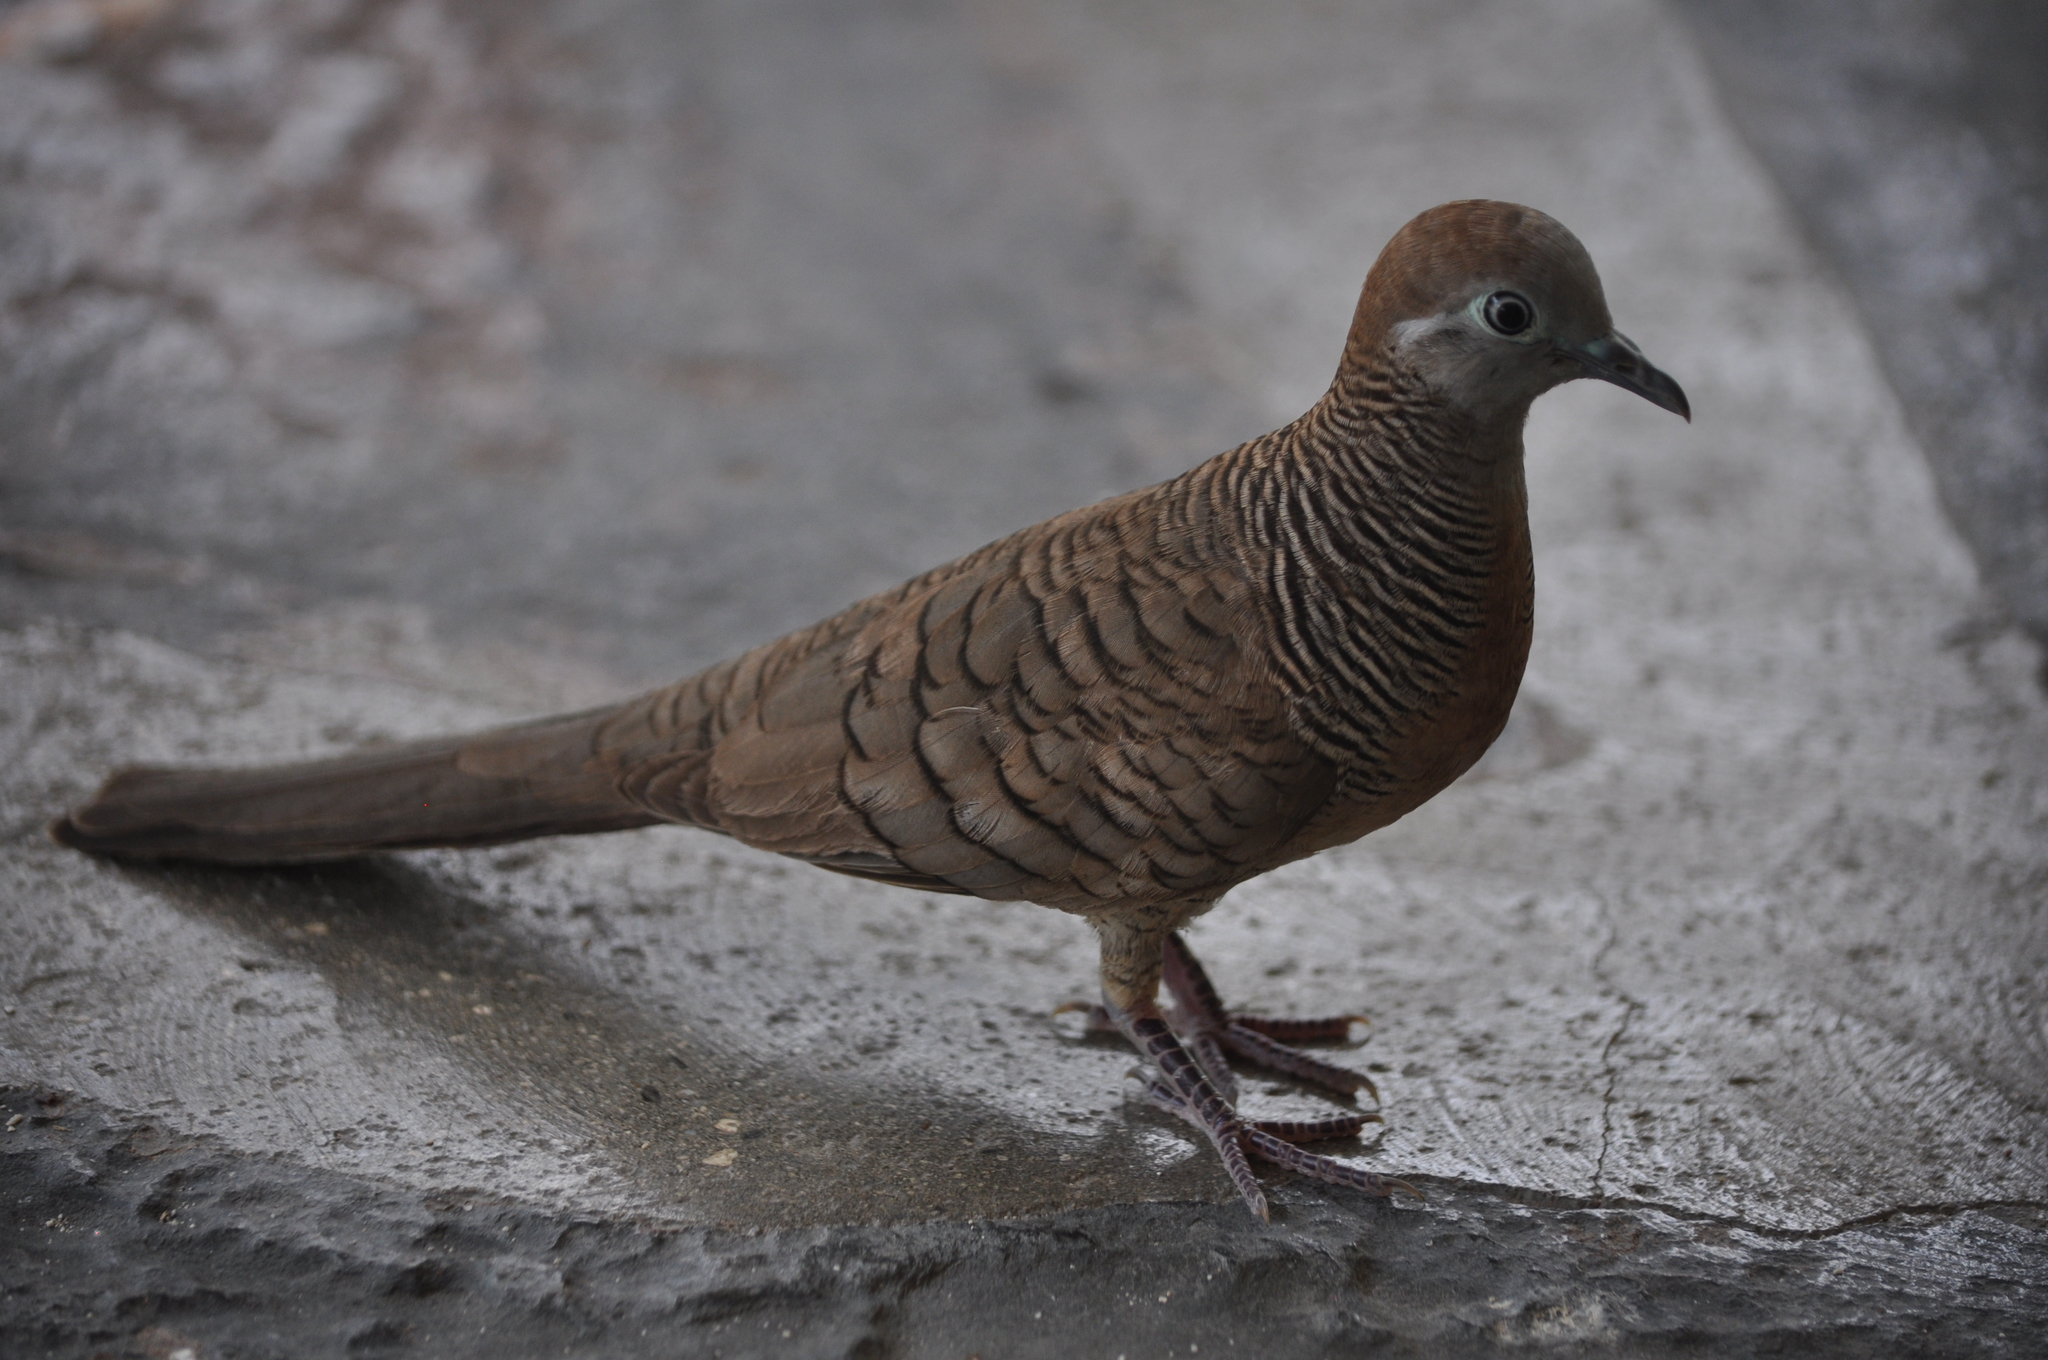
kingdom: Animalia
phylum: Chordata
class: Aves
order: Columbiformes
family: Columbidae
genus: Geopelia
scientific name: Geopelia striata
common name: Zebra dove
